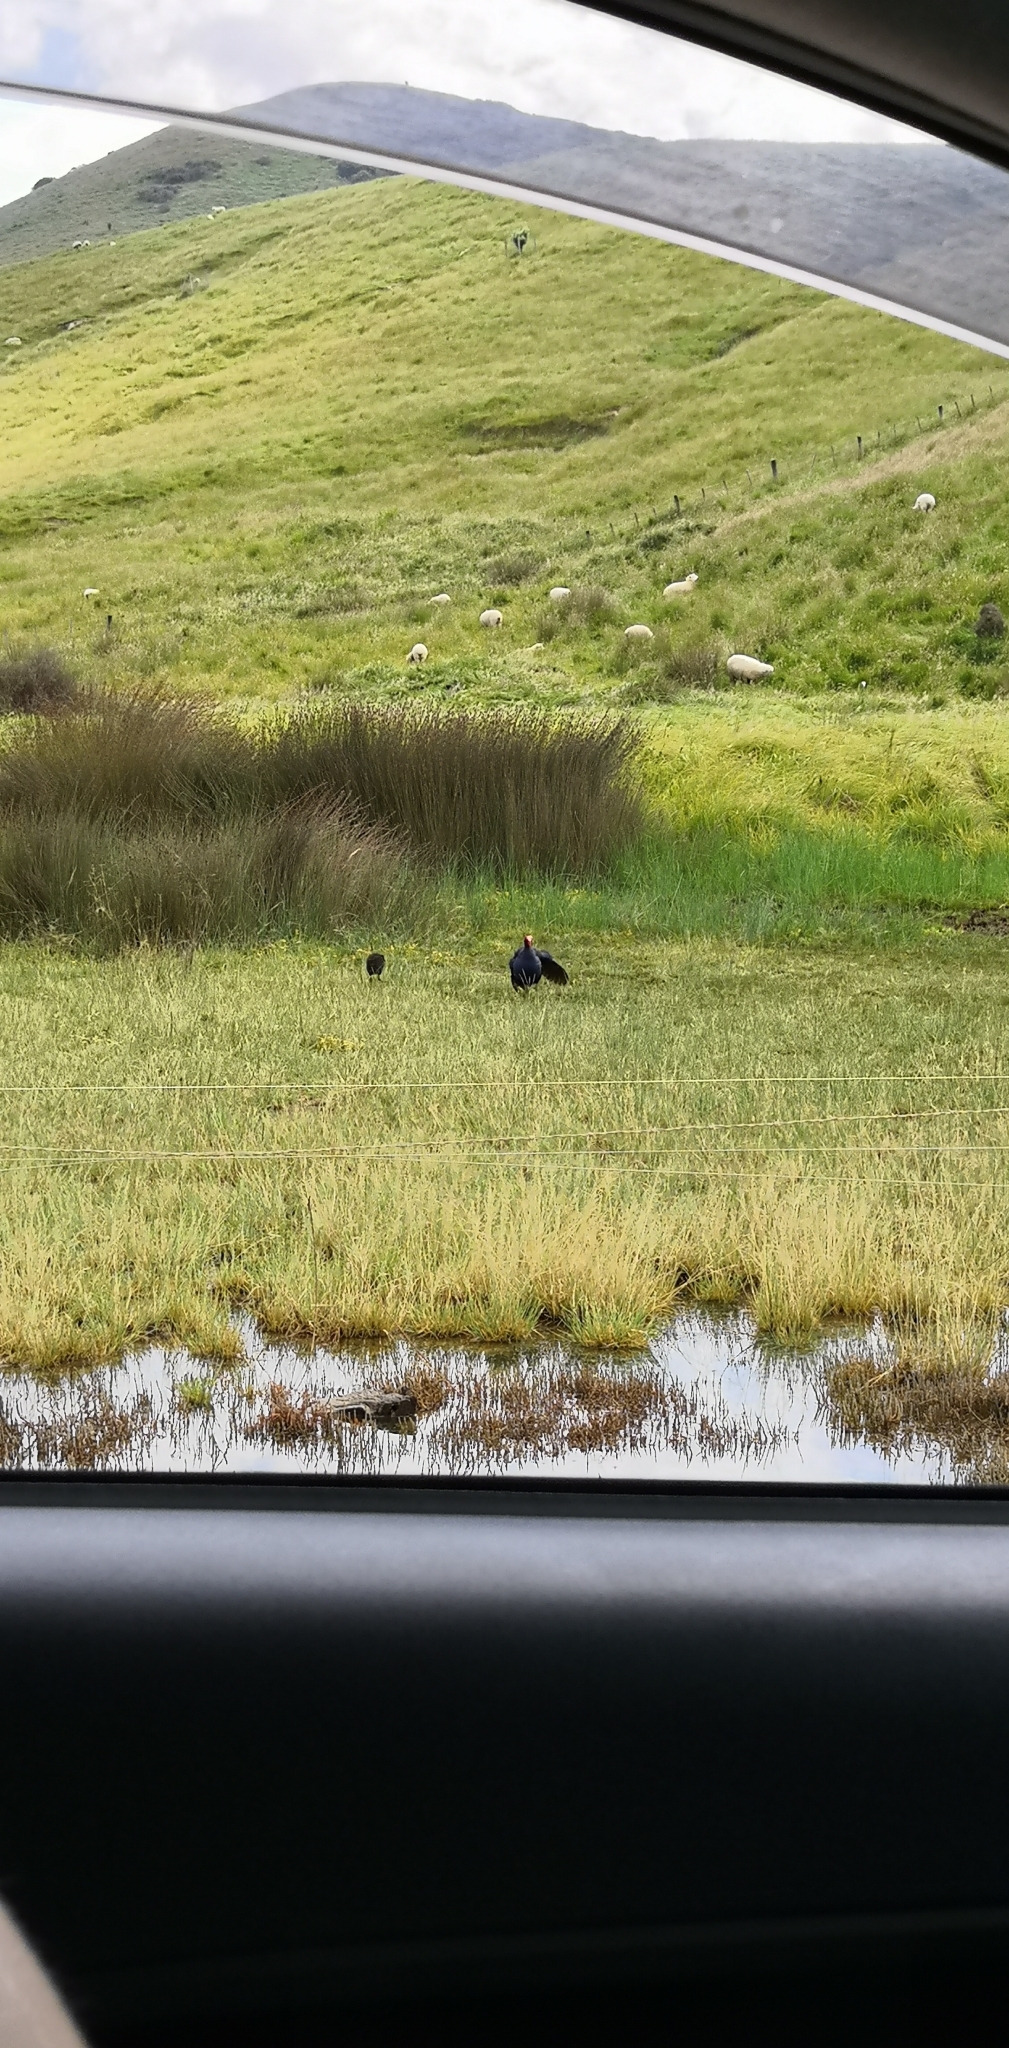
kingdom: Animalia
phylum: Chordata
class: Aves
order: Gruiformes
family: Rallidae
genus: Porphyrio
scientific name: Porphyrio melanotus
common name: Australasian swamphen
